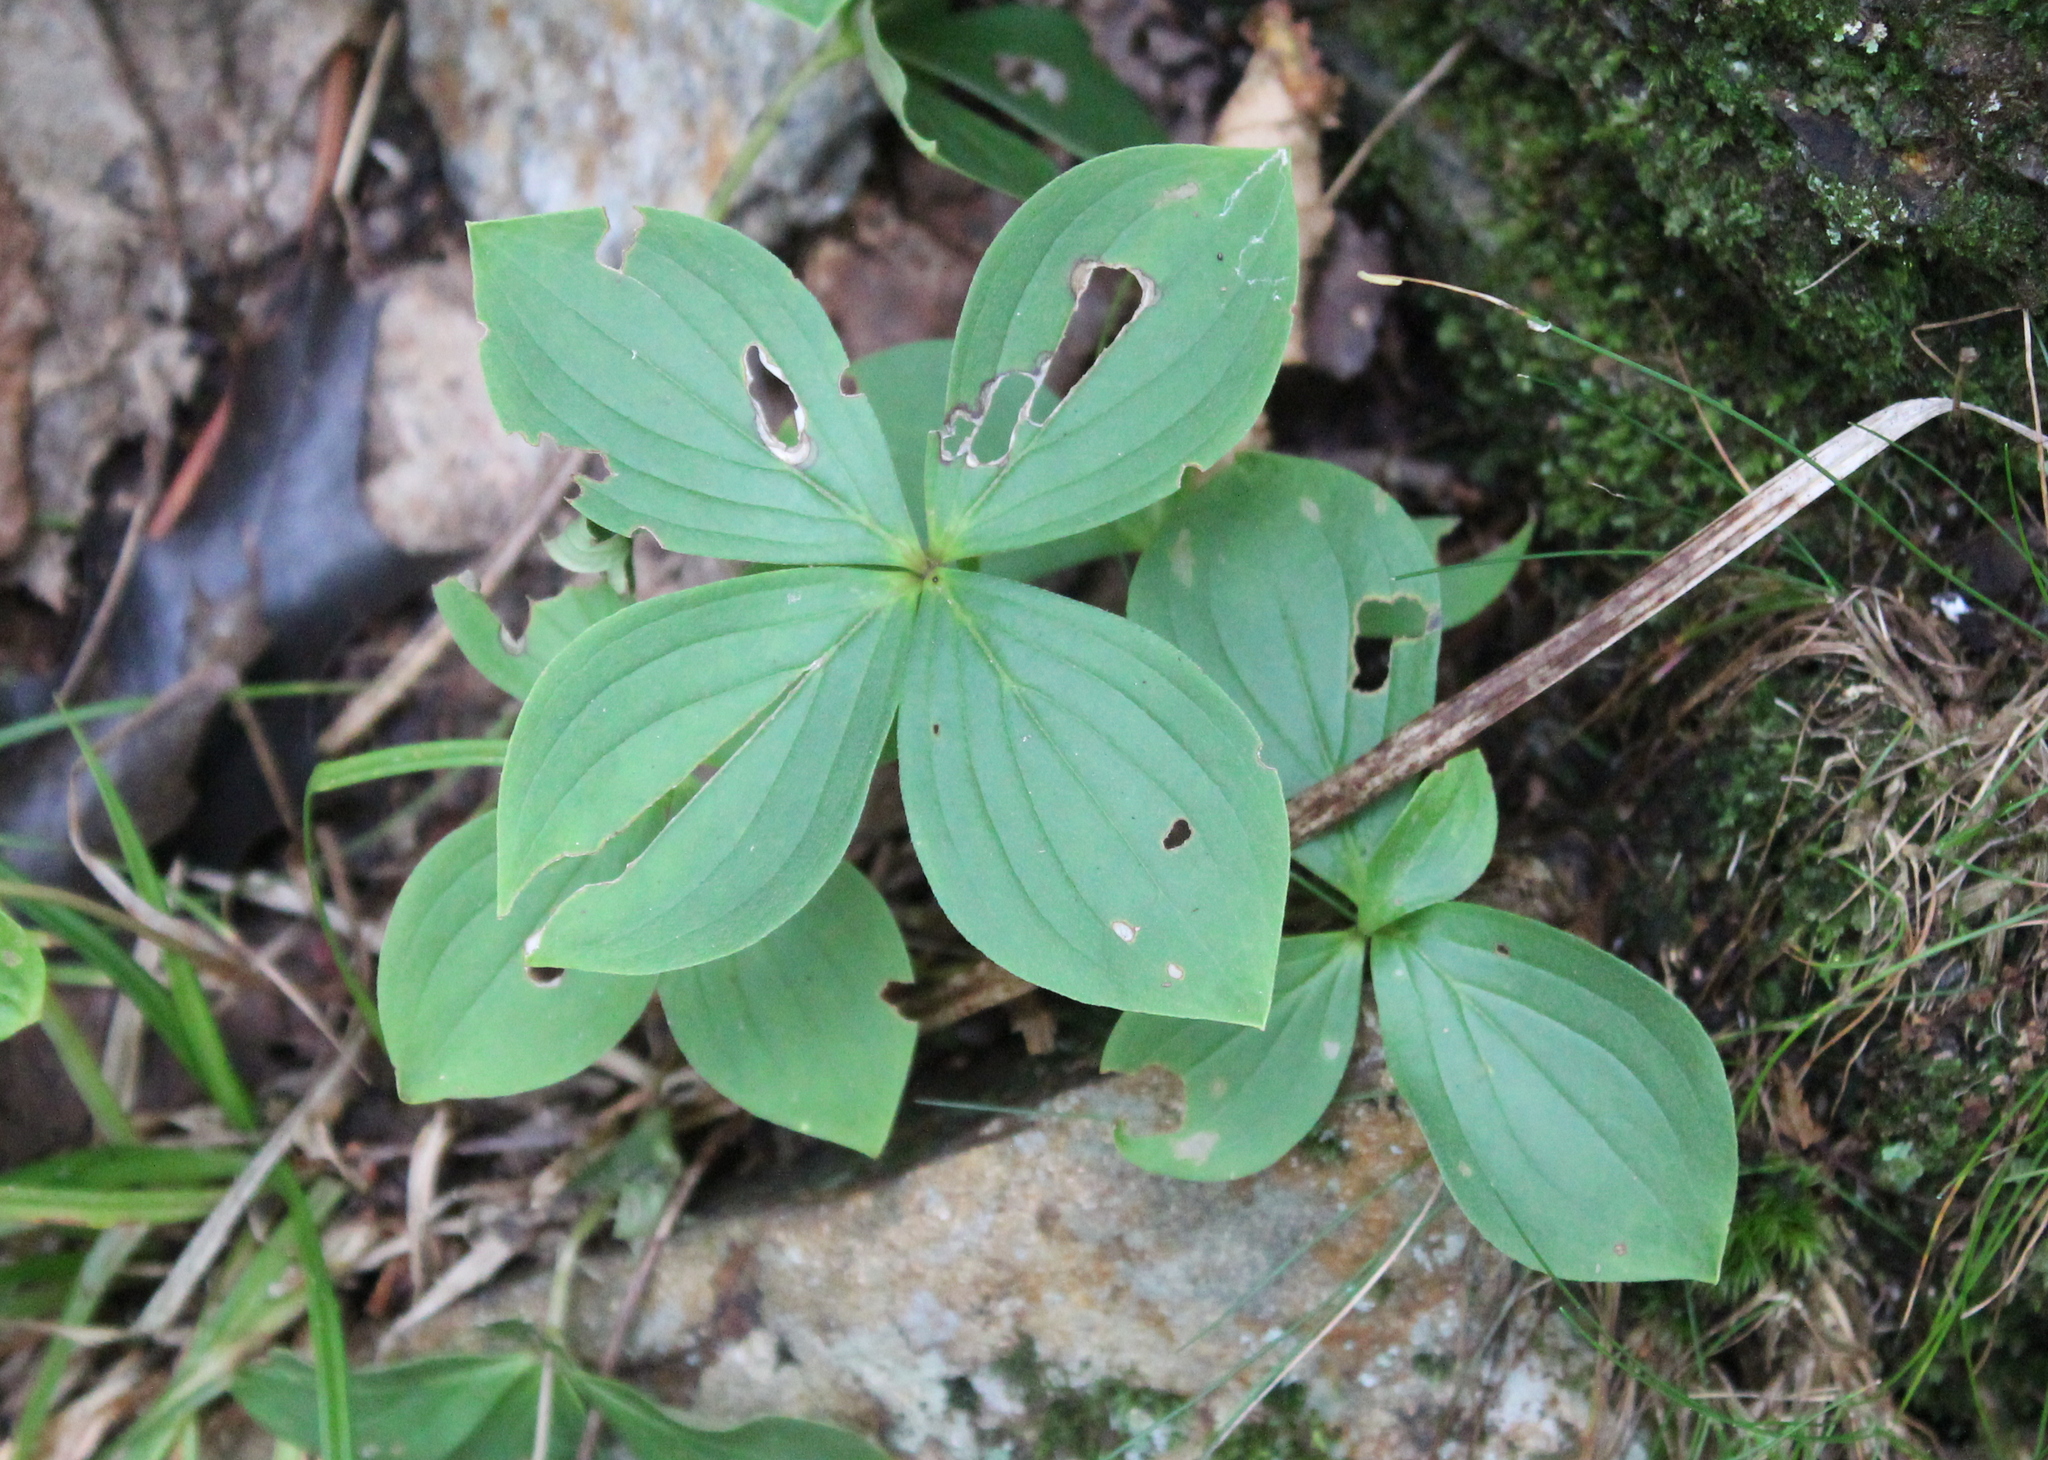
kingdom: Plantae
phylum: Tracheophyta
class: Magnoliopsida
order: Cornales
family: Cornaceae
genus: Cornus
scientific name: Cornus canadensis
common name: Creeping dogwood
